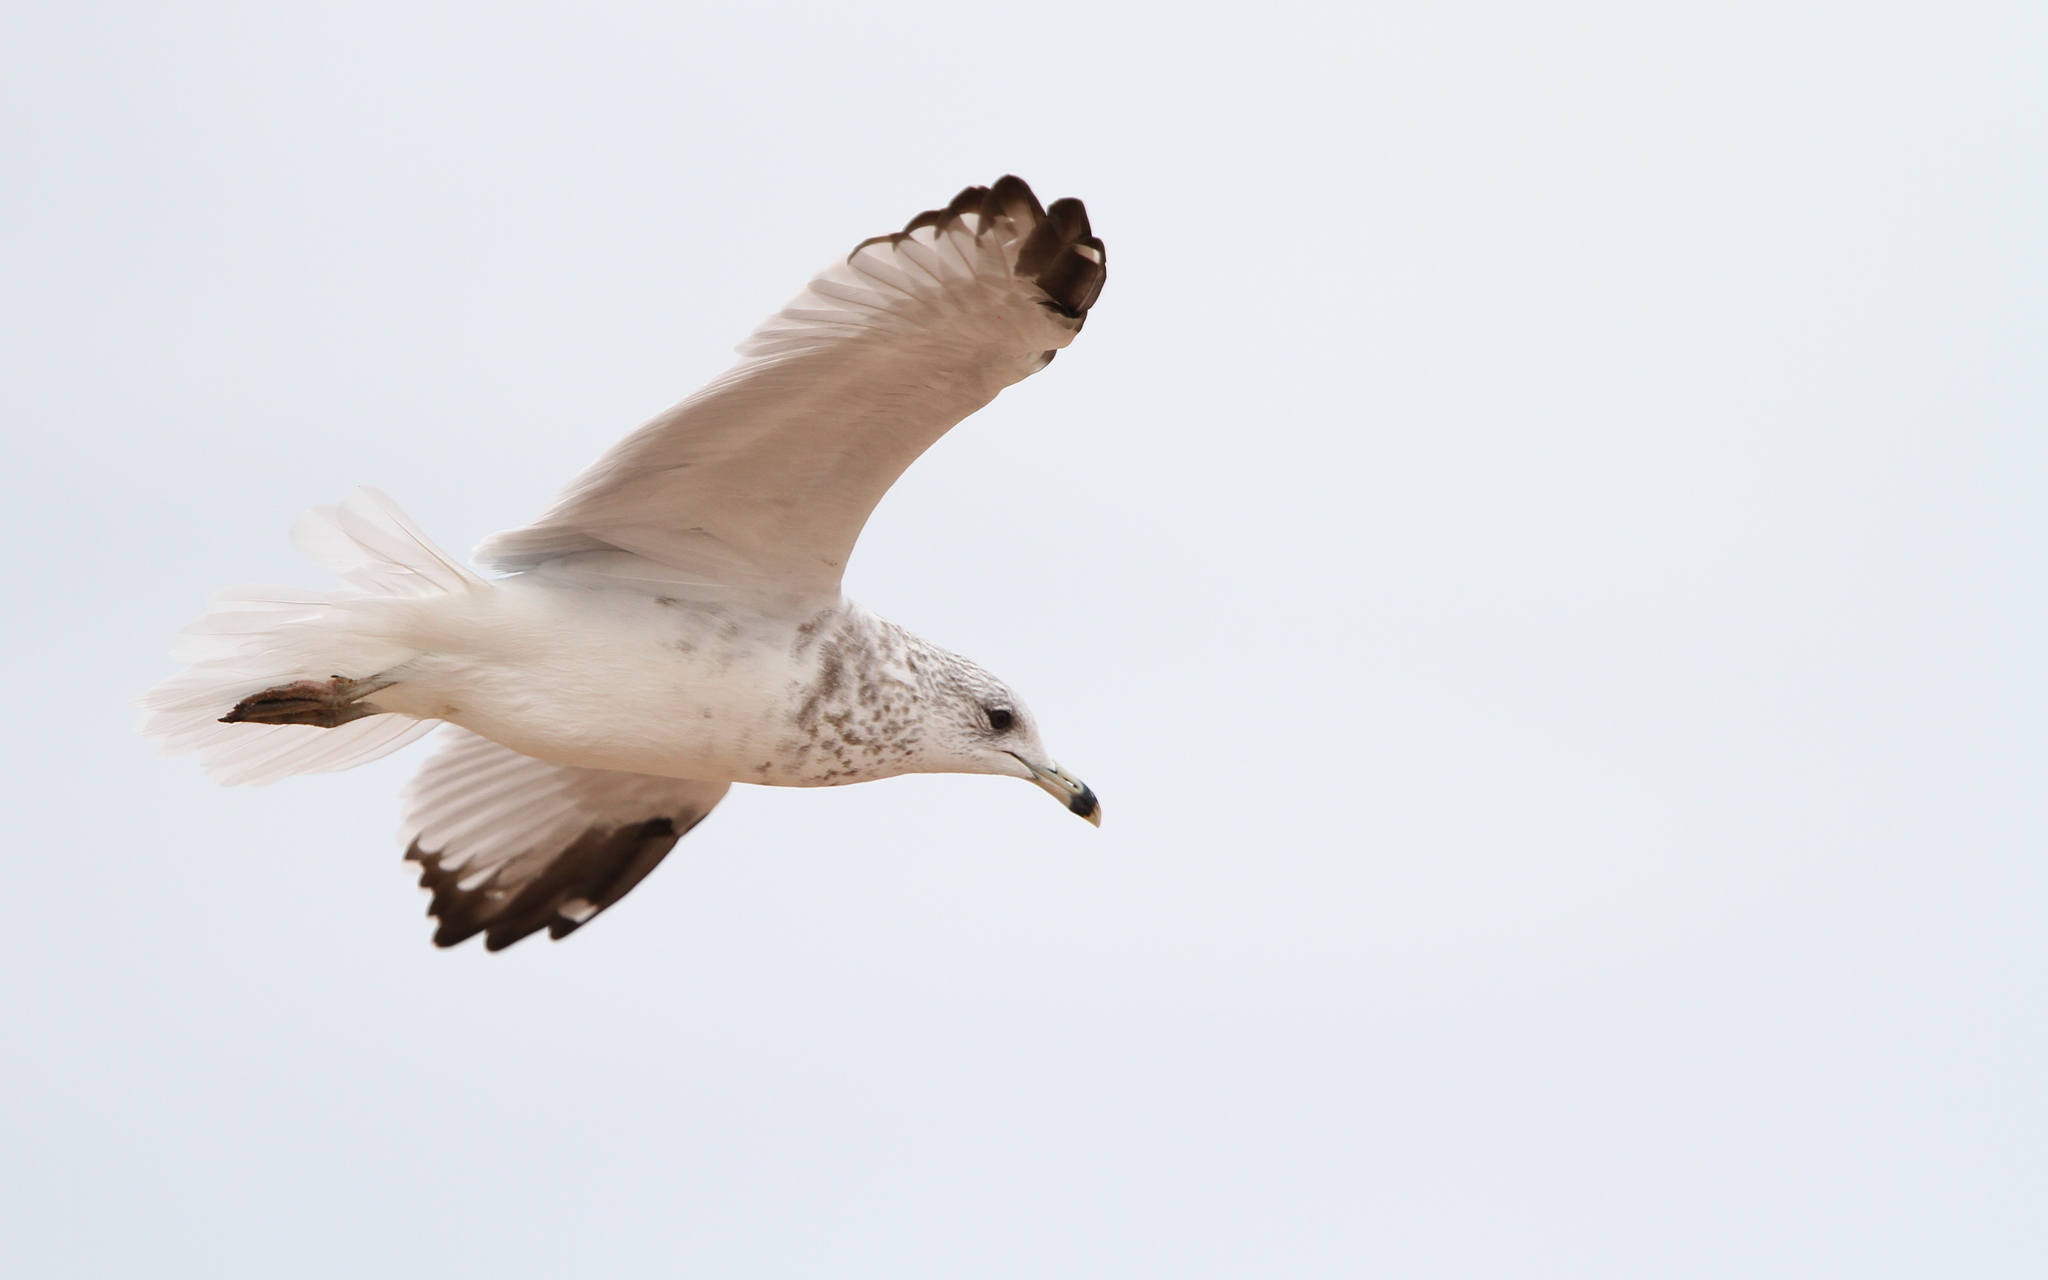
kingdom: Animalia
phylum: Chordata
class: Aves
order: Charadriiformes
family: Laridae
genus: Larus
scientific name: Larus delawarensis
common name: Ring-billed gull
